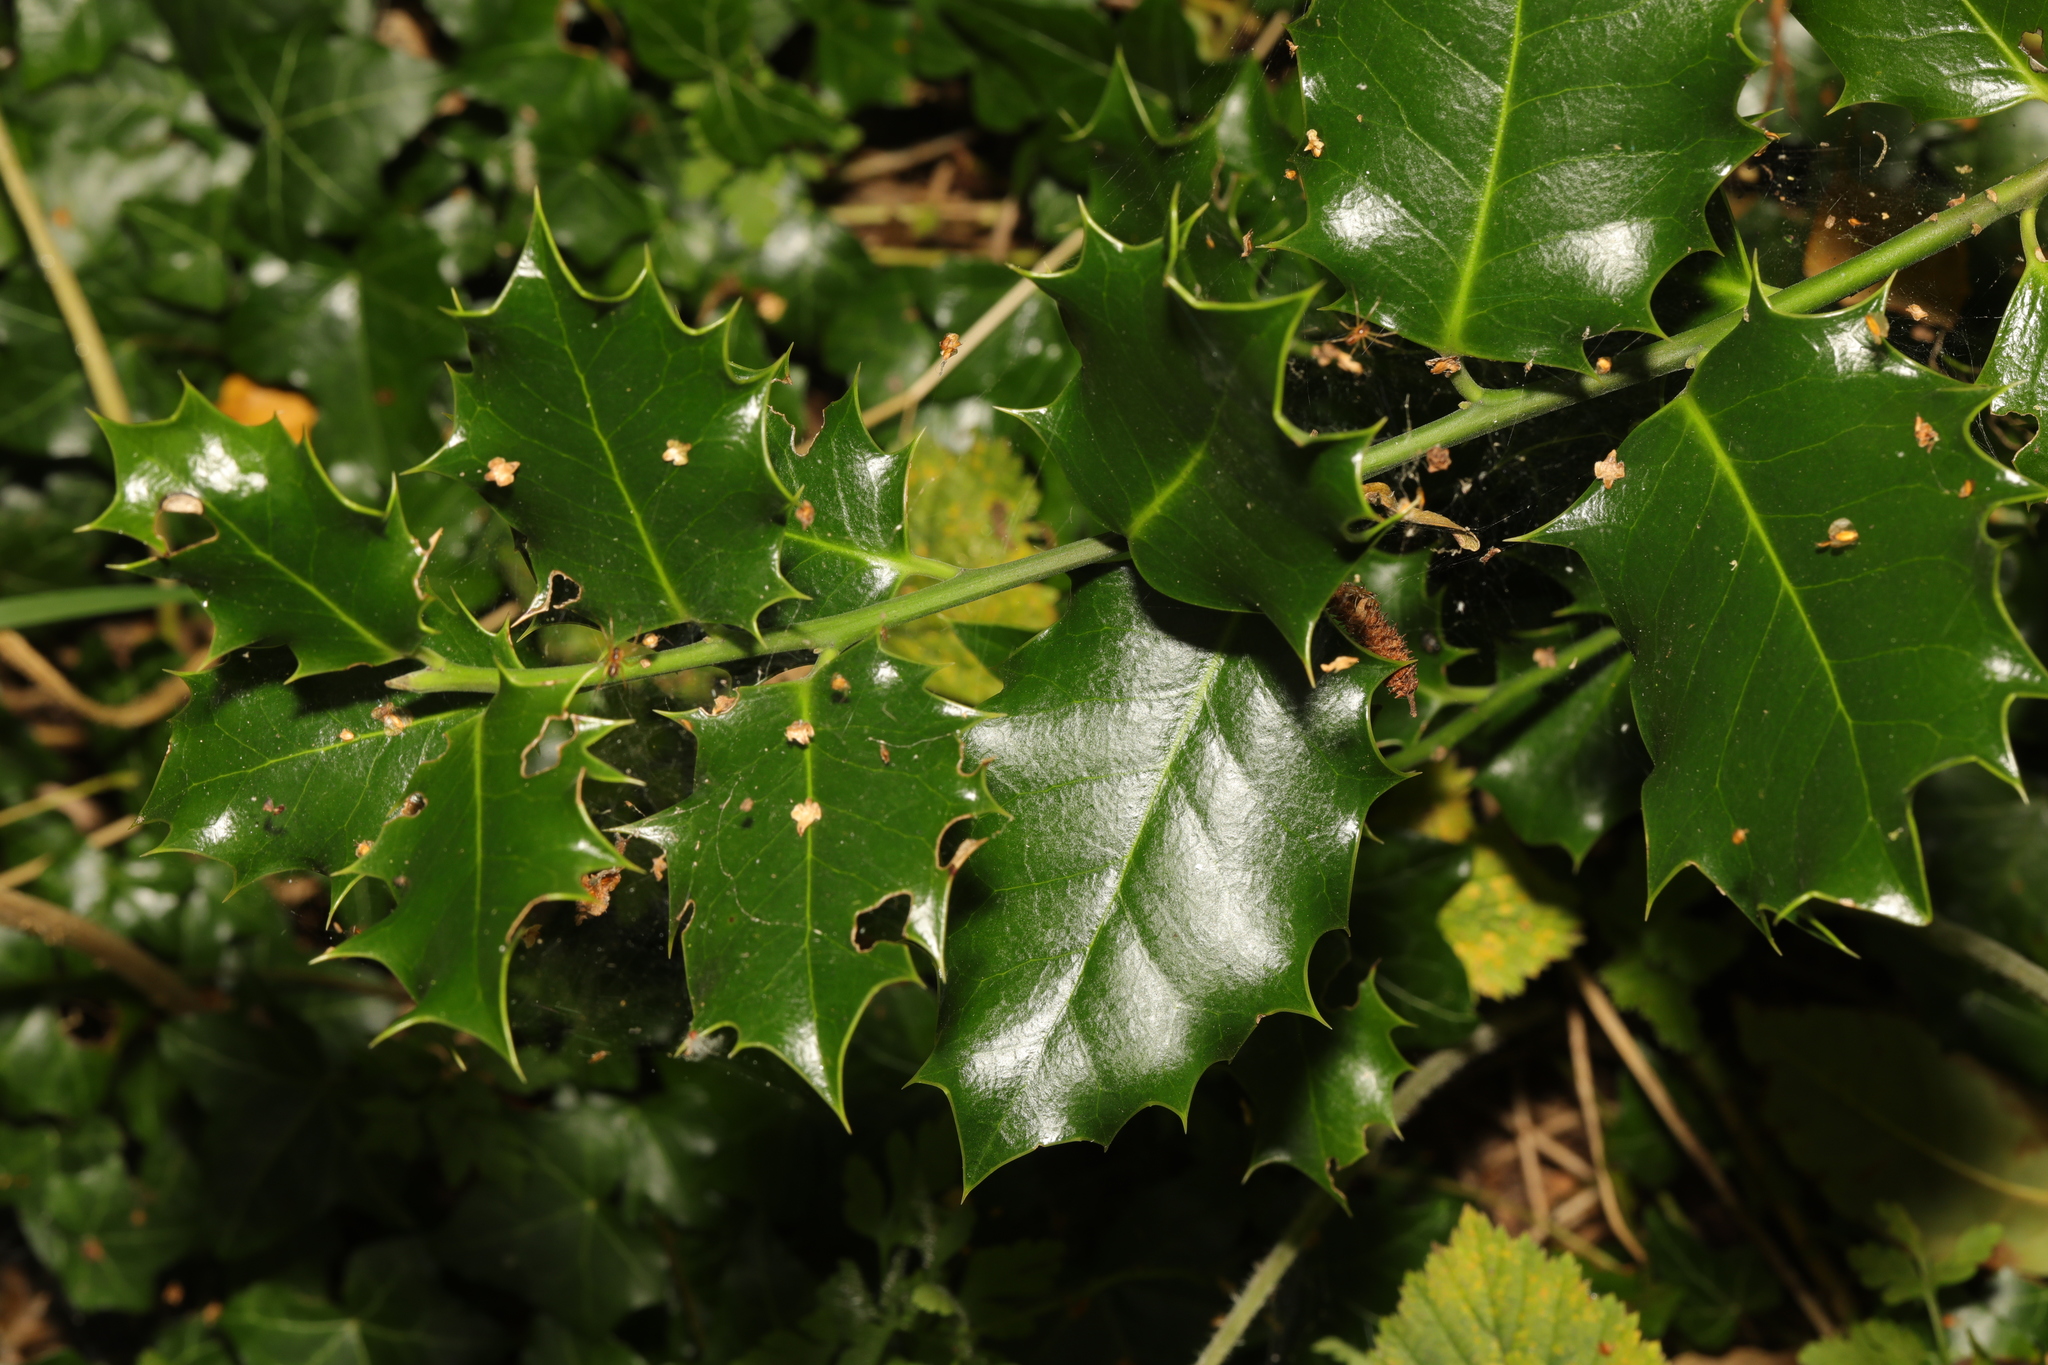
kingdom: Plantae
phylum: Tracheophyta
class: Magnoliopsida
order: Aquifoliales
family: Aquifoliaceae
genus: Ilex
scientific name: Ilex aquifolium
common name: English holly
